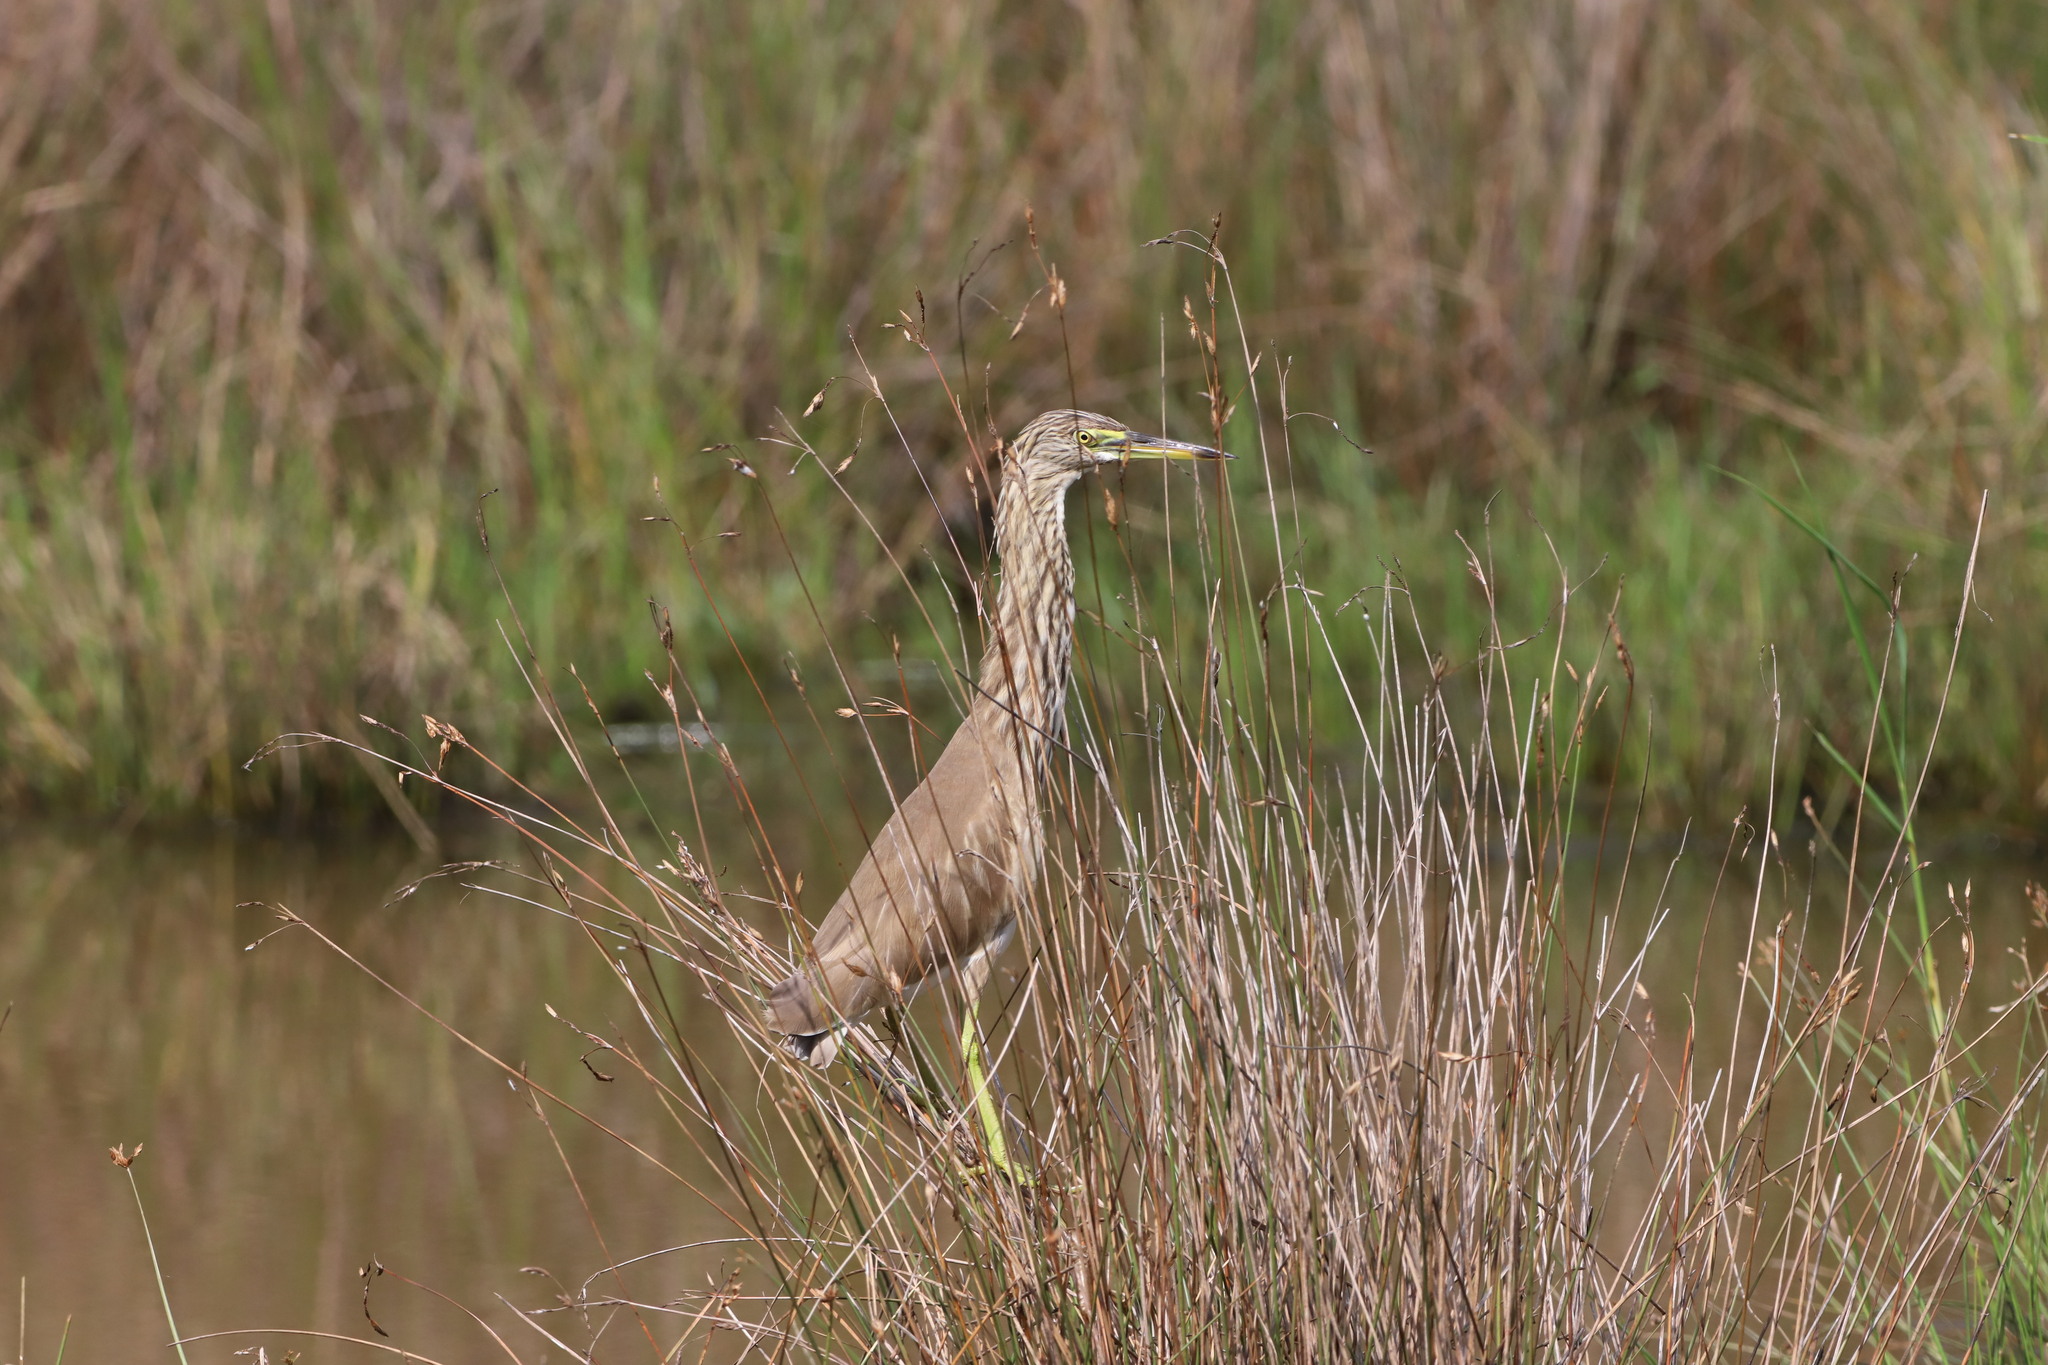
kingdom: Animalia
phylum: Chordata
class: Aves
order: Pelecaniformes
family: Ardeidae
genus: Ardeola
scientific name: Ardeola grayii
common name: Indian pond heron
